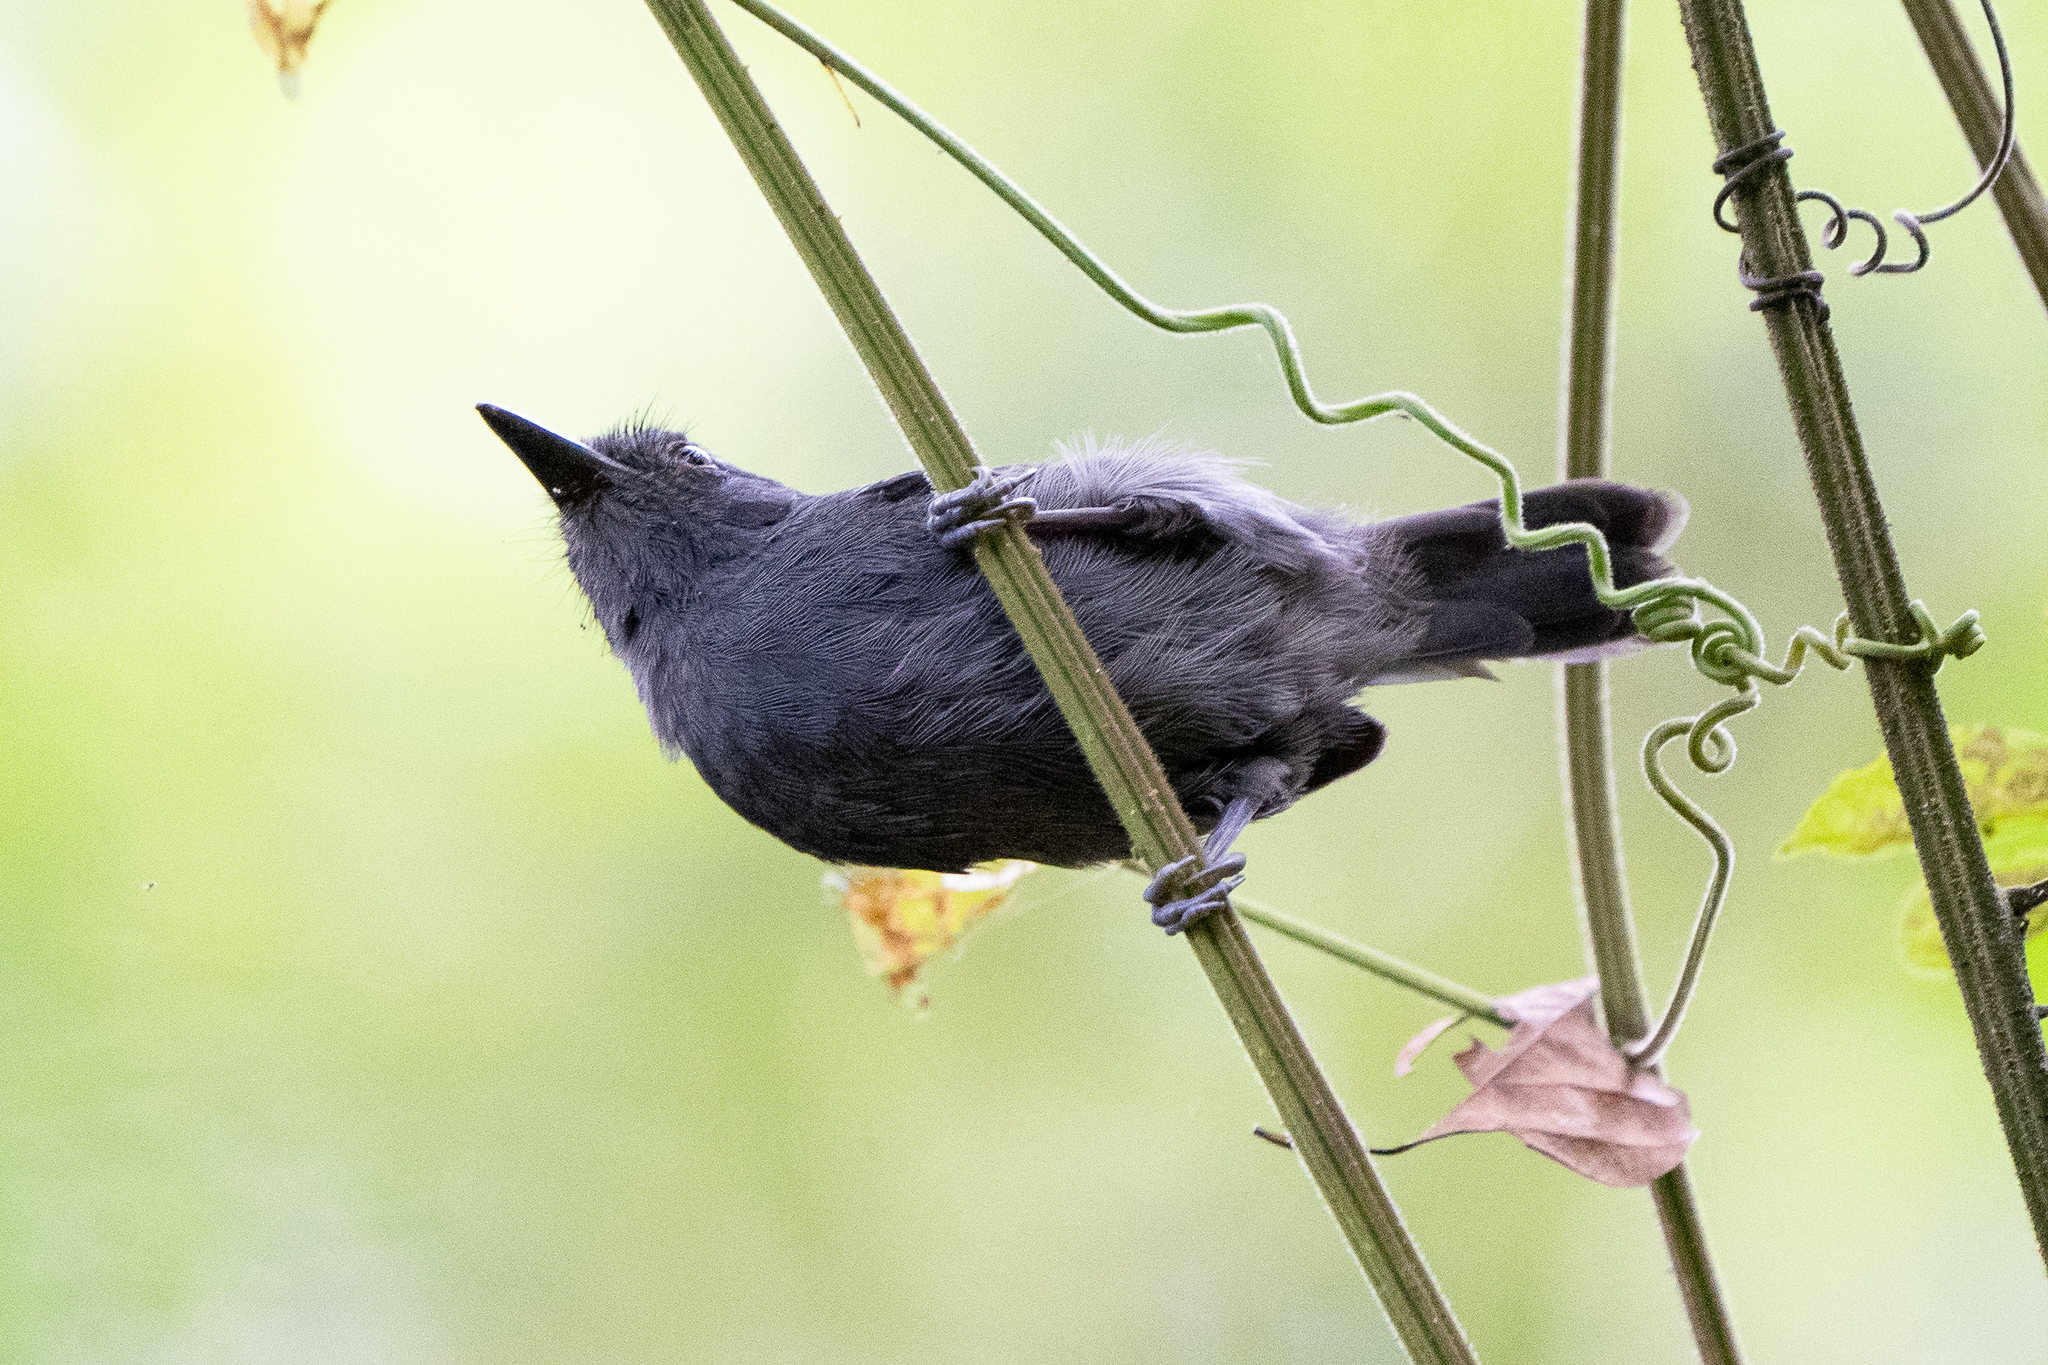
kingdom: Animalia
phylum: Chordata
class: Aves
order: Passeriformes
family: Thamnophilidae
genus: Cercomacra
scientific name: Cercomacra tyrannina
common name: Dusky antbird
